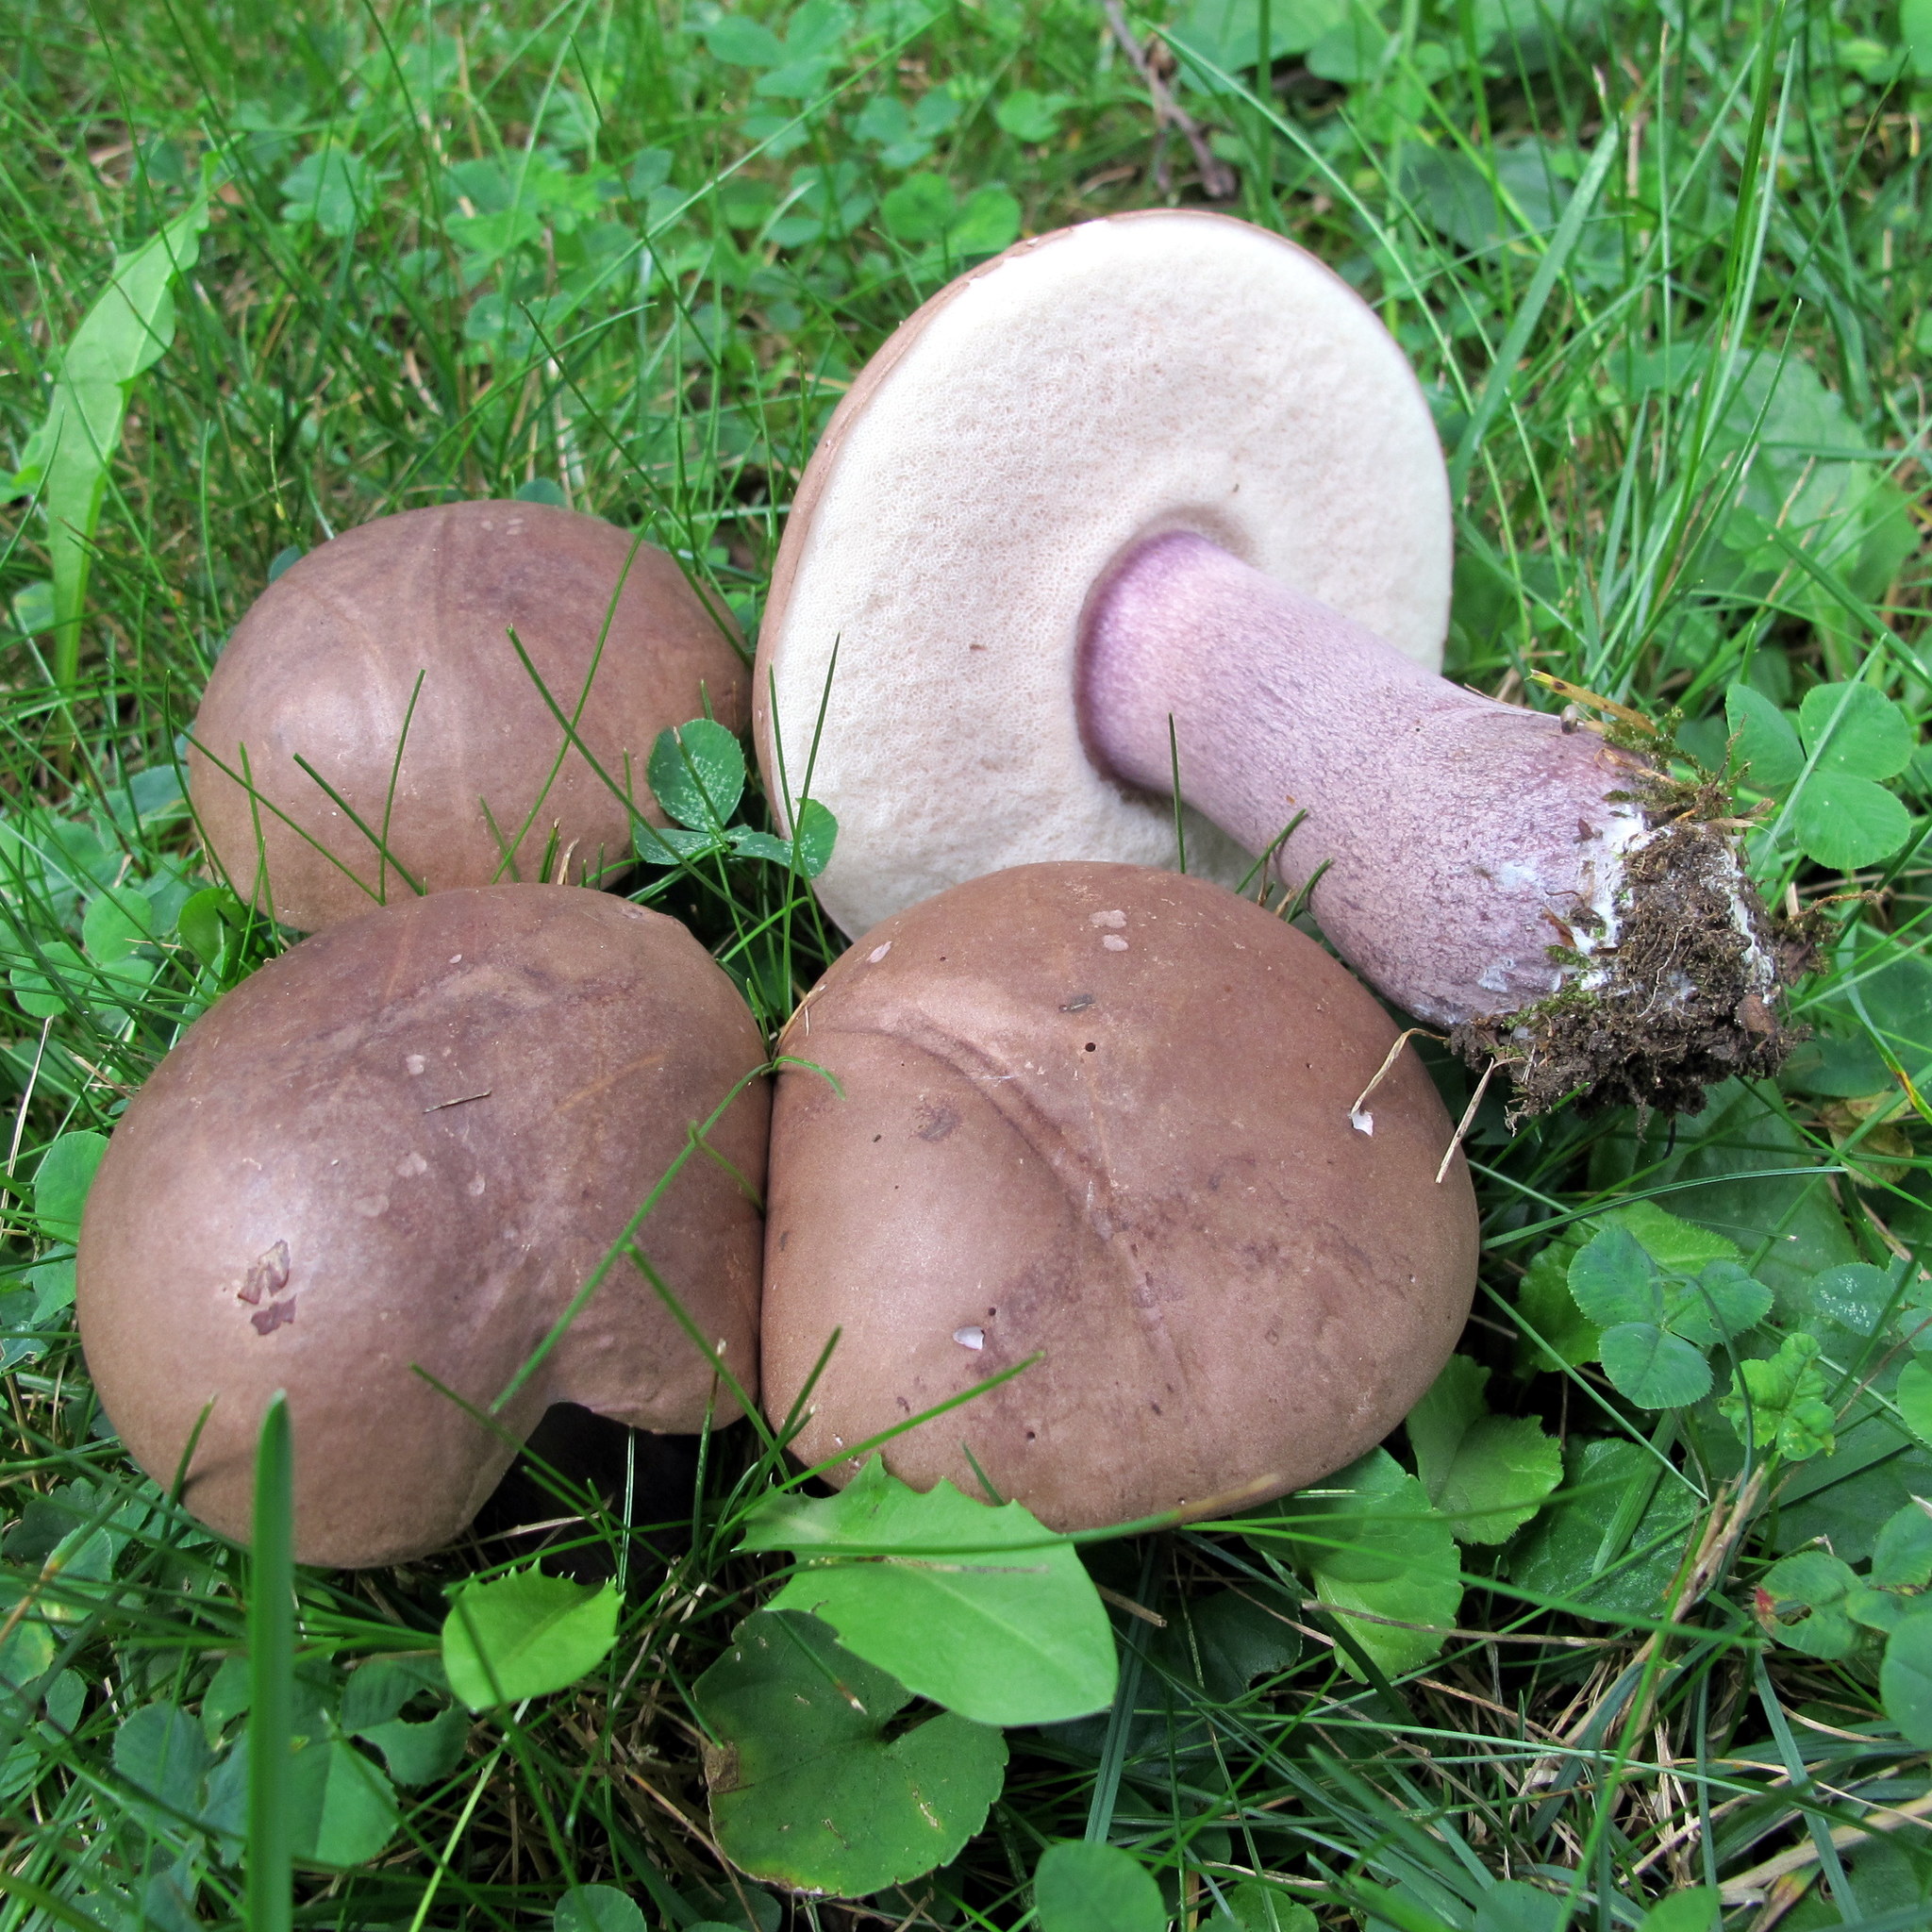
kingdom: Fungi
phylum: Basidiomycota
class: Agaricomycetes
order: Boletales
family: Boletaceae
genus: Tylopilus
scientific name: Tylopilus plumbeoviolaceus
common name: Violet gray bolete
